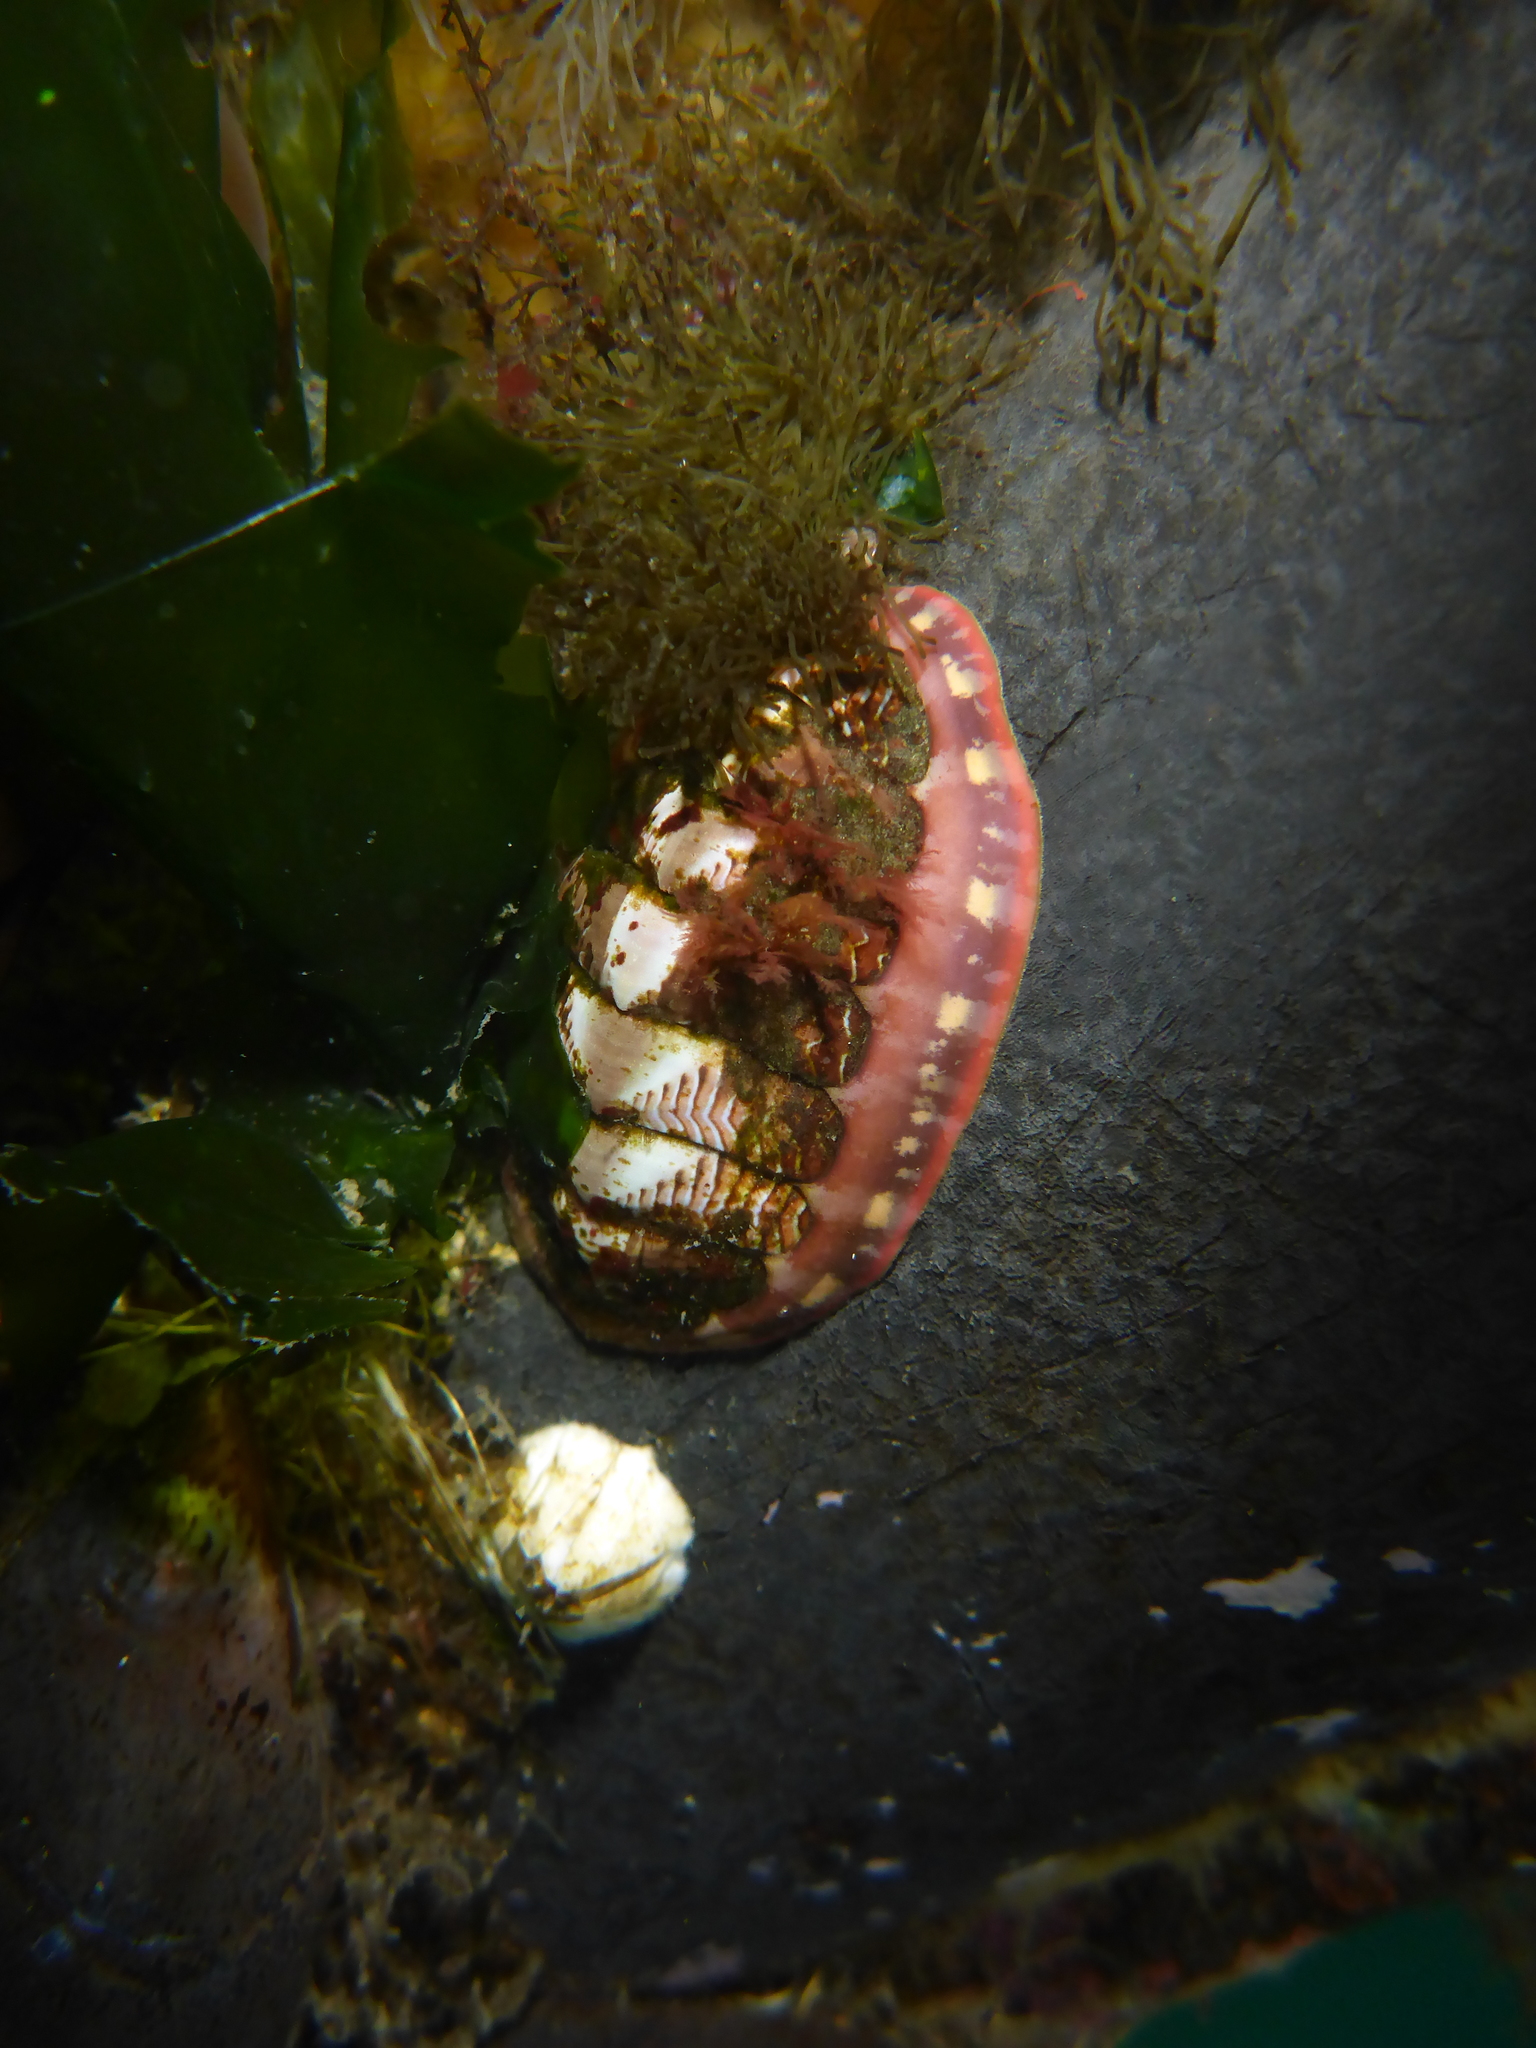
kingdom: Animalia
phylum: Mollusca
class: Polyplacophora
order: Chitonida
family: Tonicellidae
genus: Tonicella
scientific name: Tonicella lineata
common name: Lined chiton
